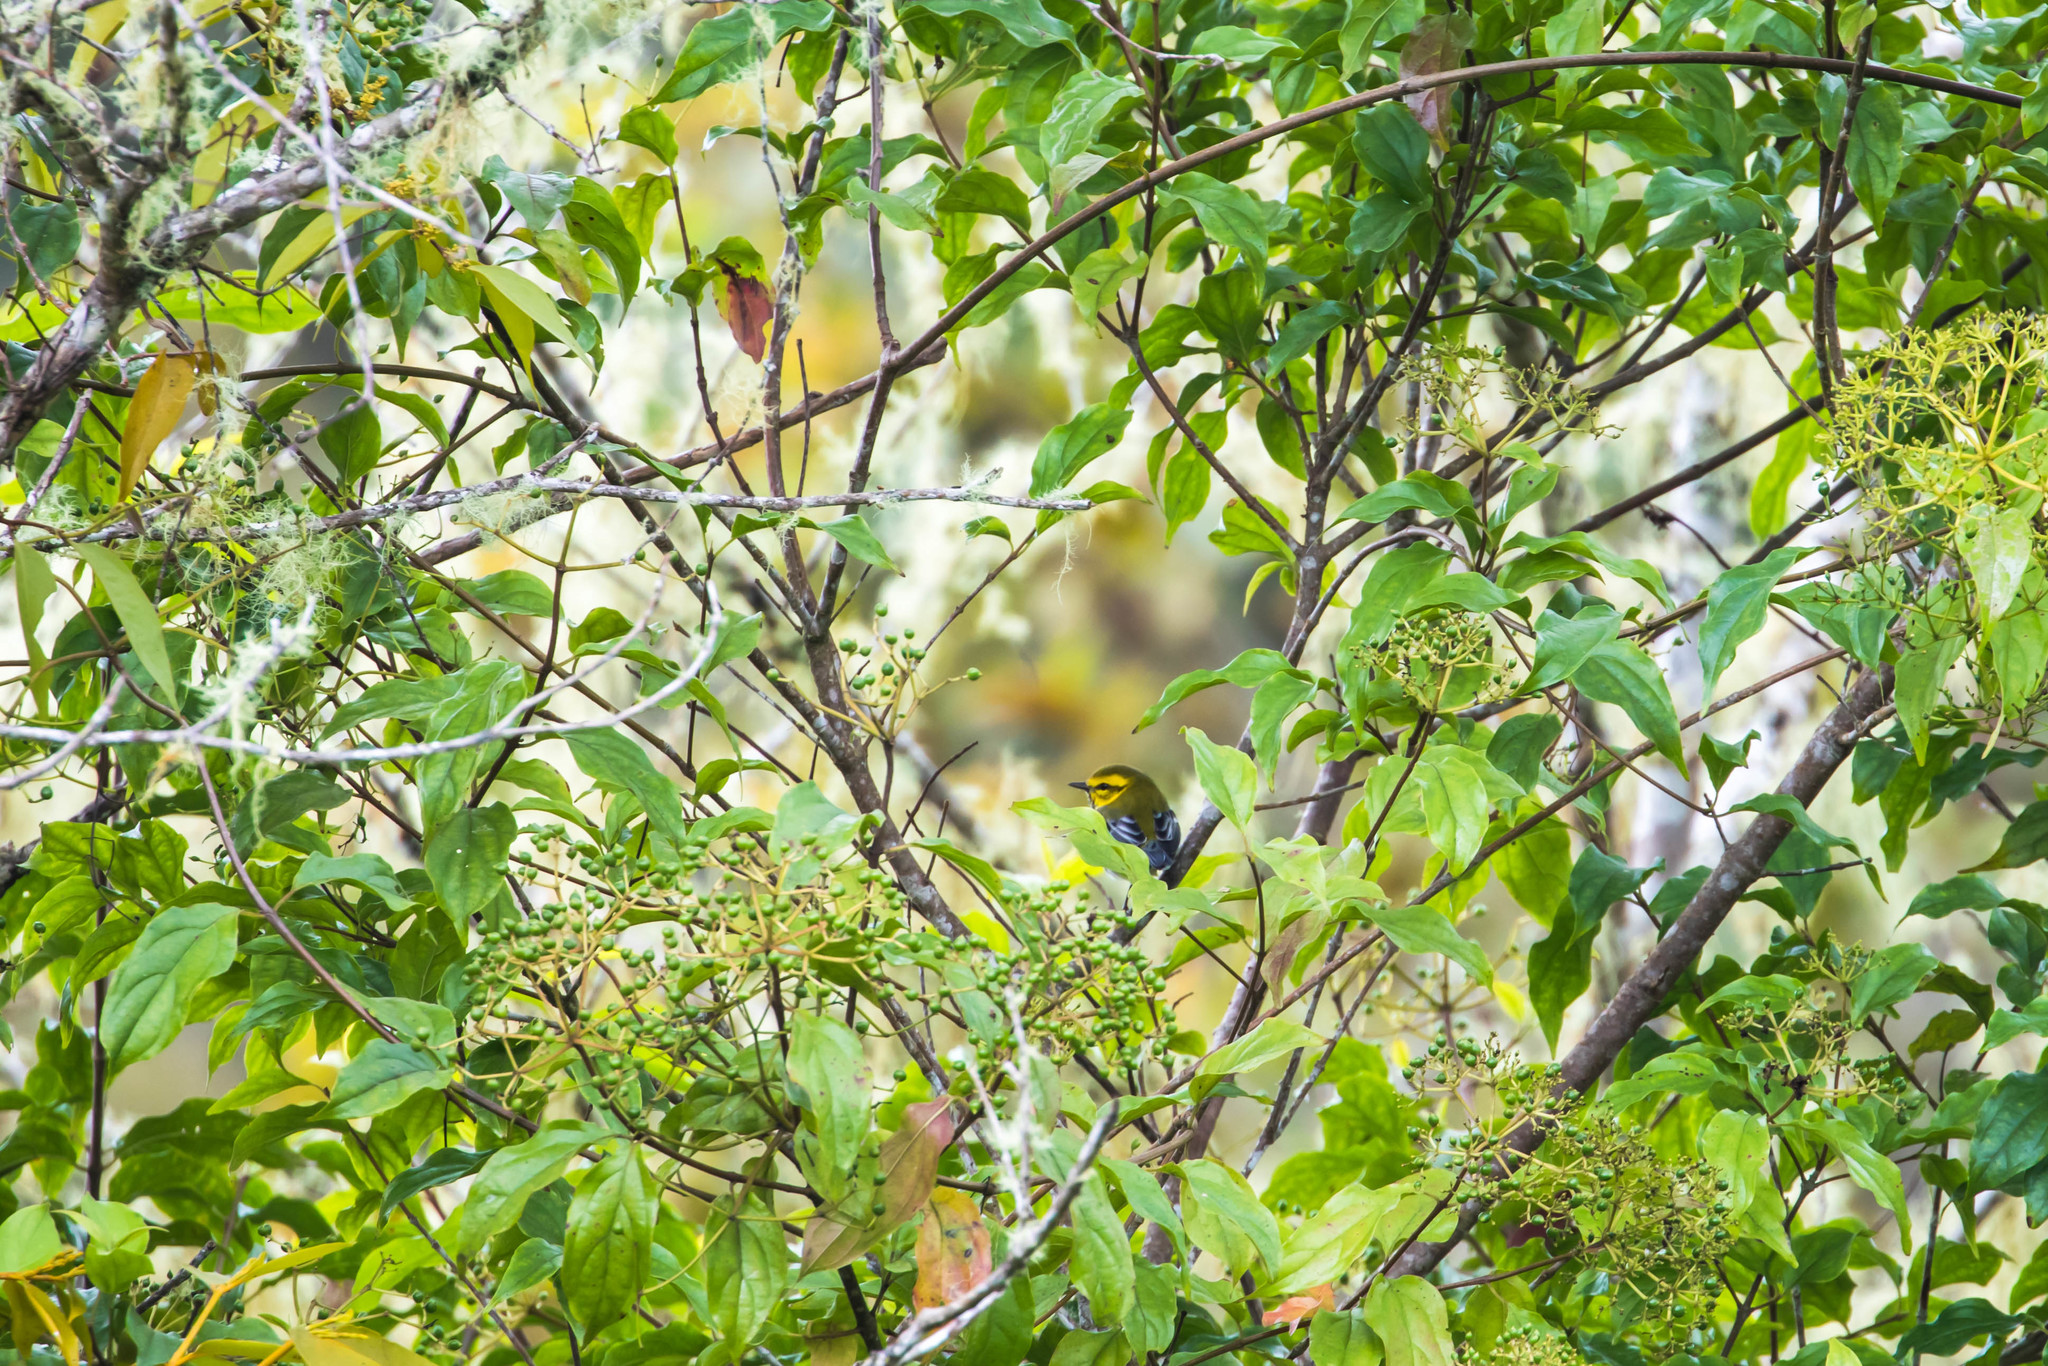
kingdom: Animalia
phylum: Chordata
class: Aves
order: Passeriformes
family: Parulidae
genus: Setophaga
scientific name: Setophaga virens
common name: Black-throated green warbler
